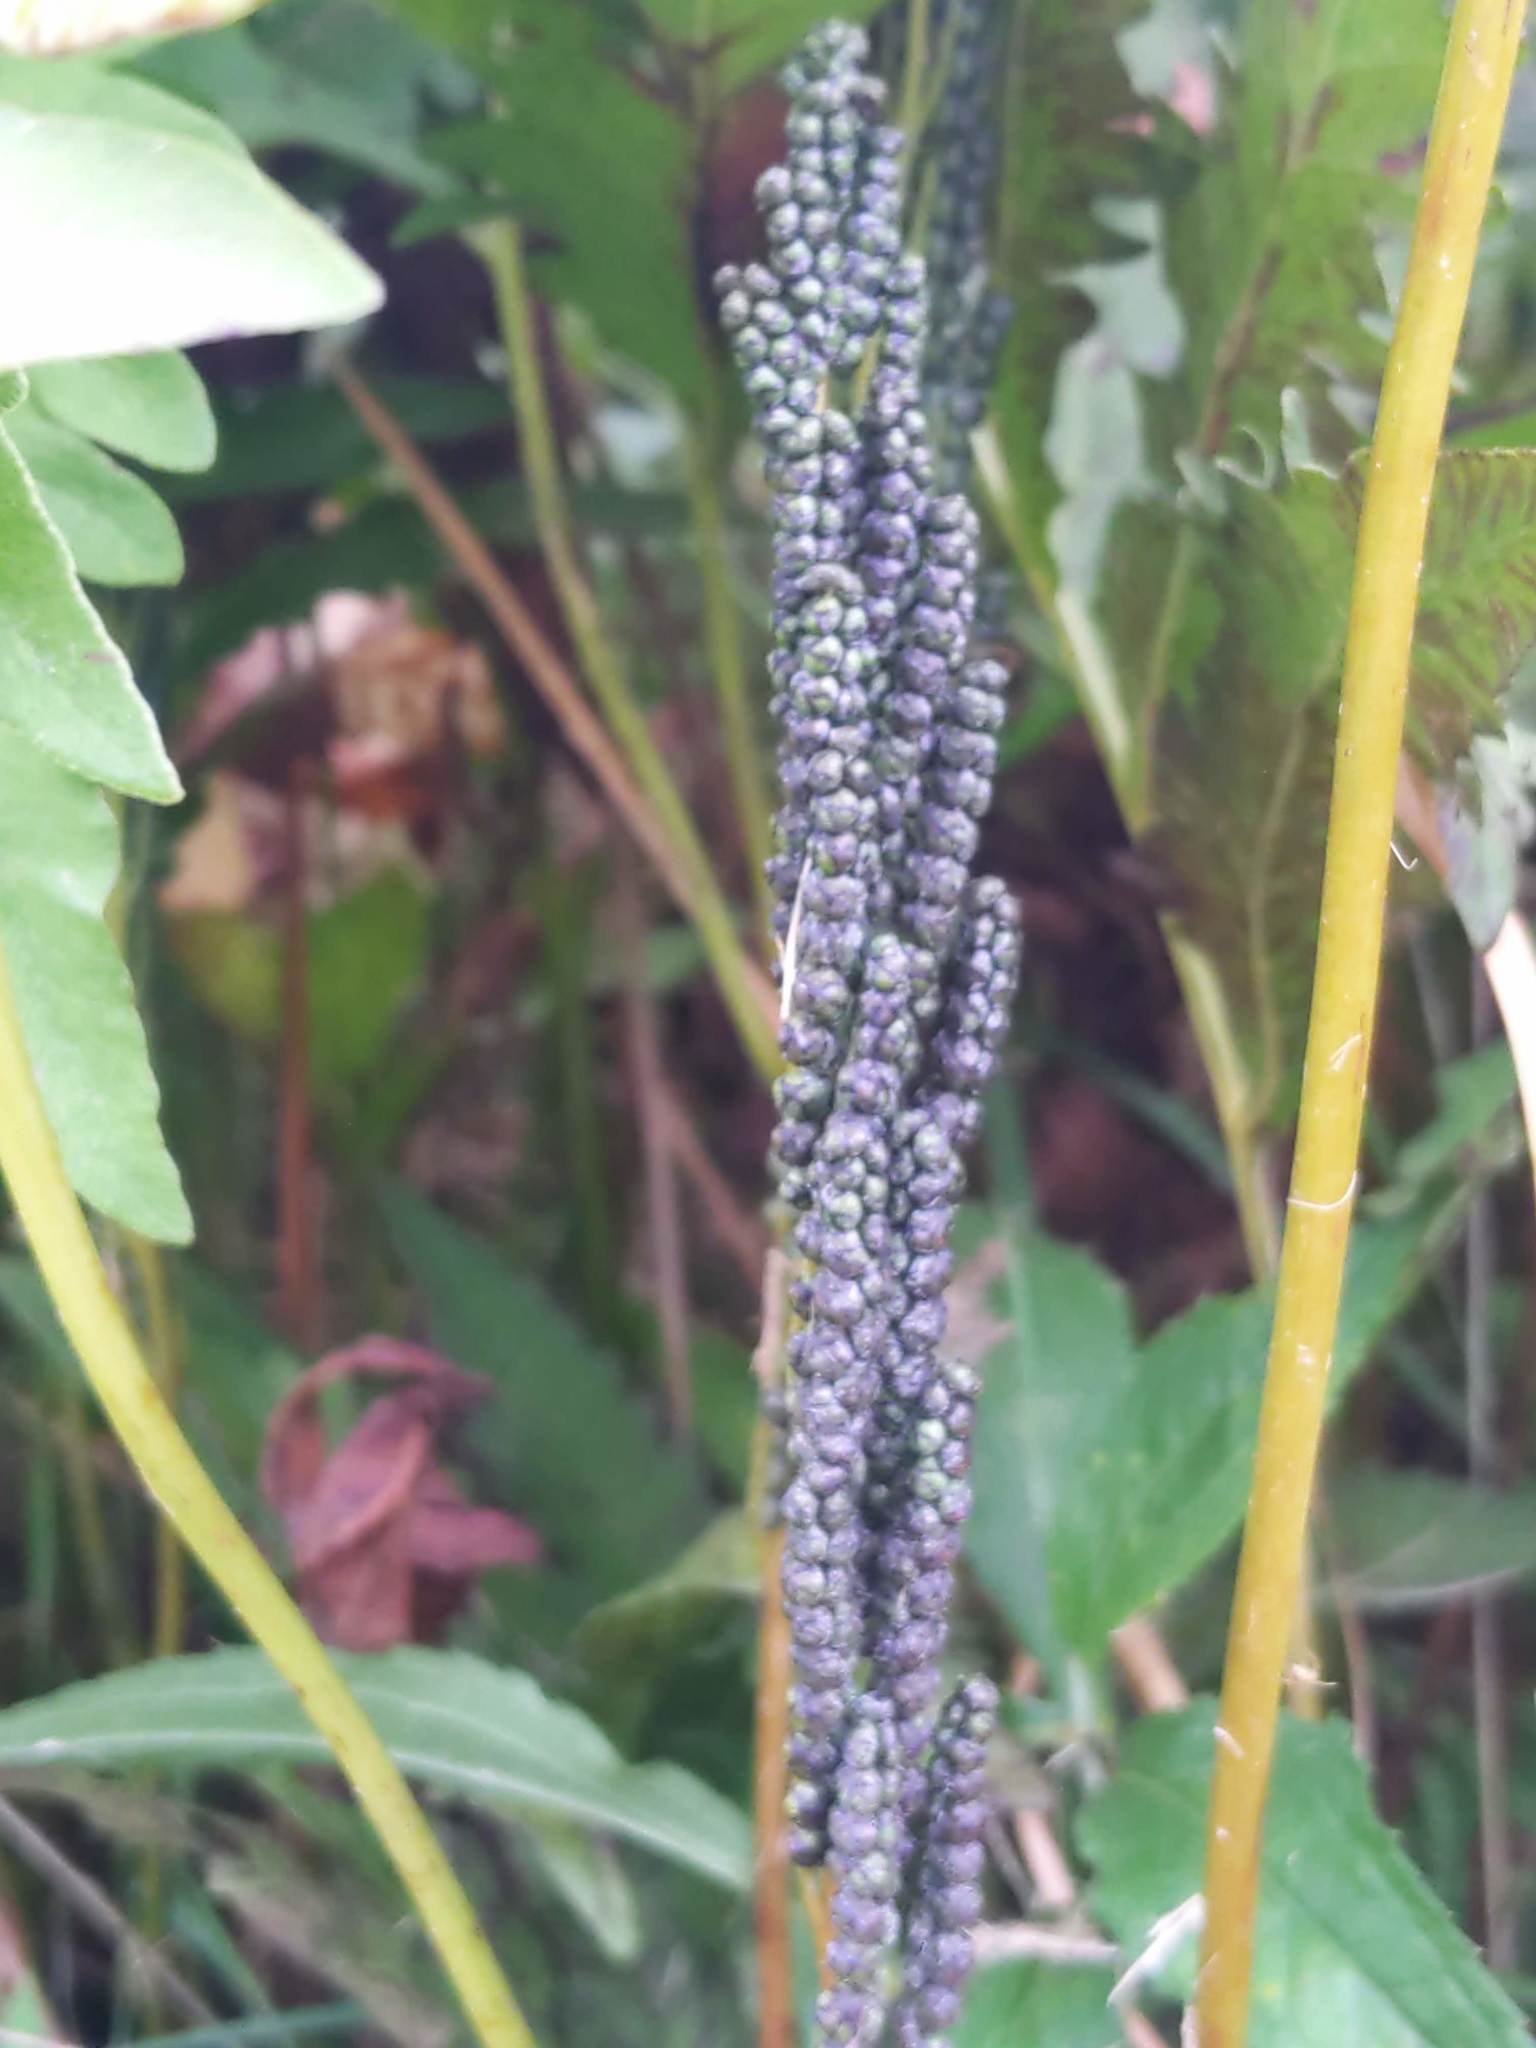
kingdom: Plantae
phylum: Tracheophyta
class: Polypodiopsida
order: Polypodiales
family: Onocleaceae
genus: Onoclea
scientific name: Onoclea sensibilis
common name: Sensitive fern
